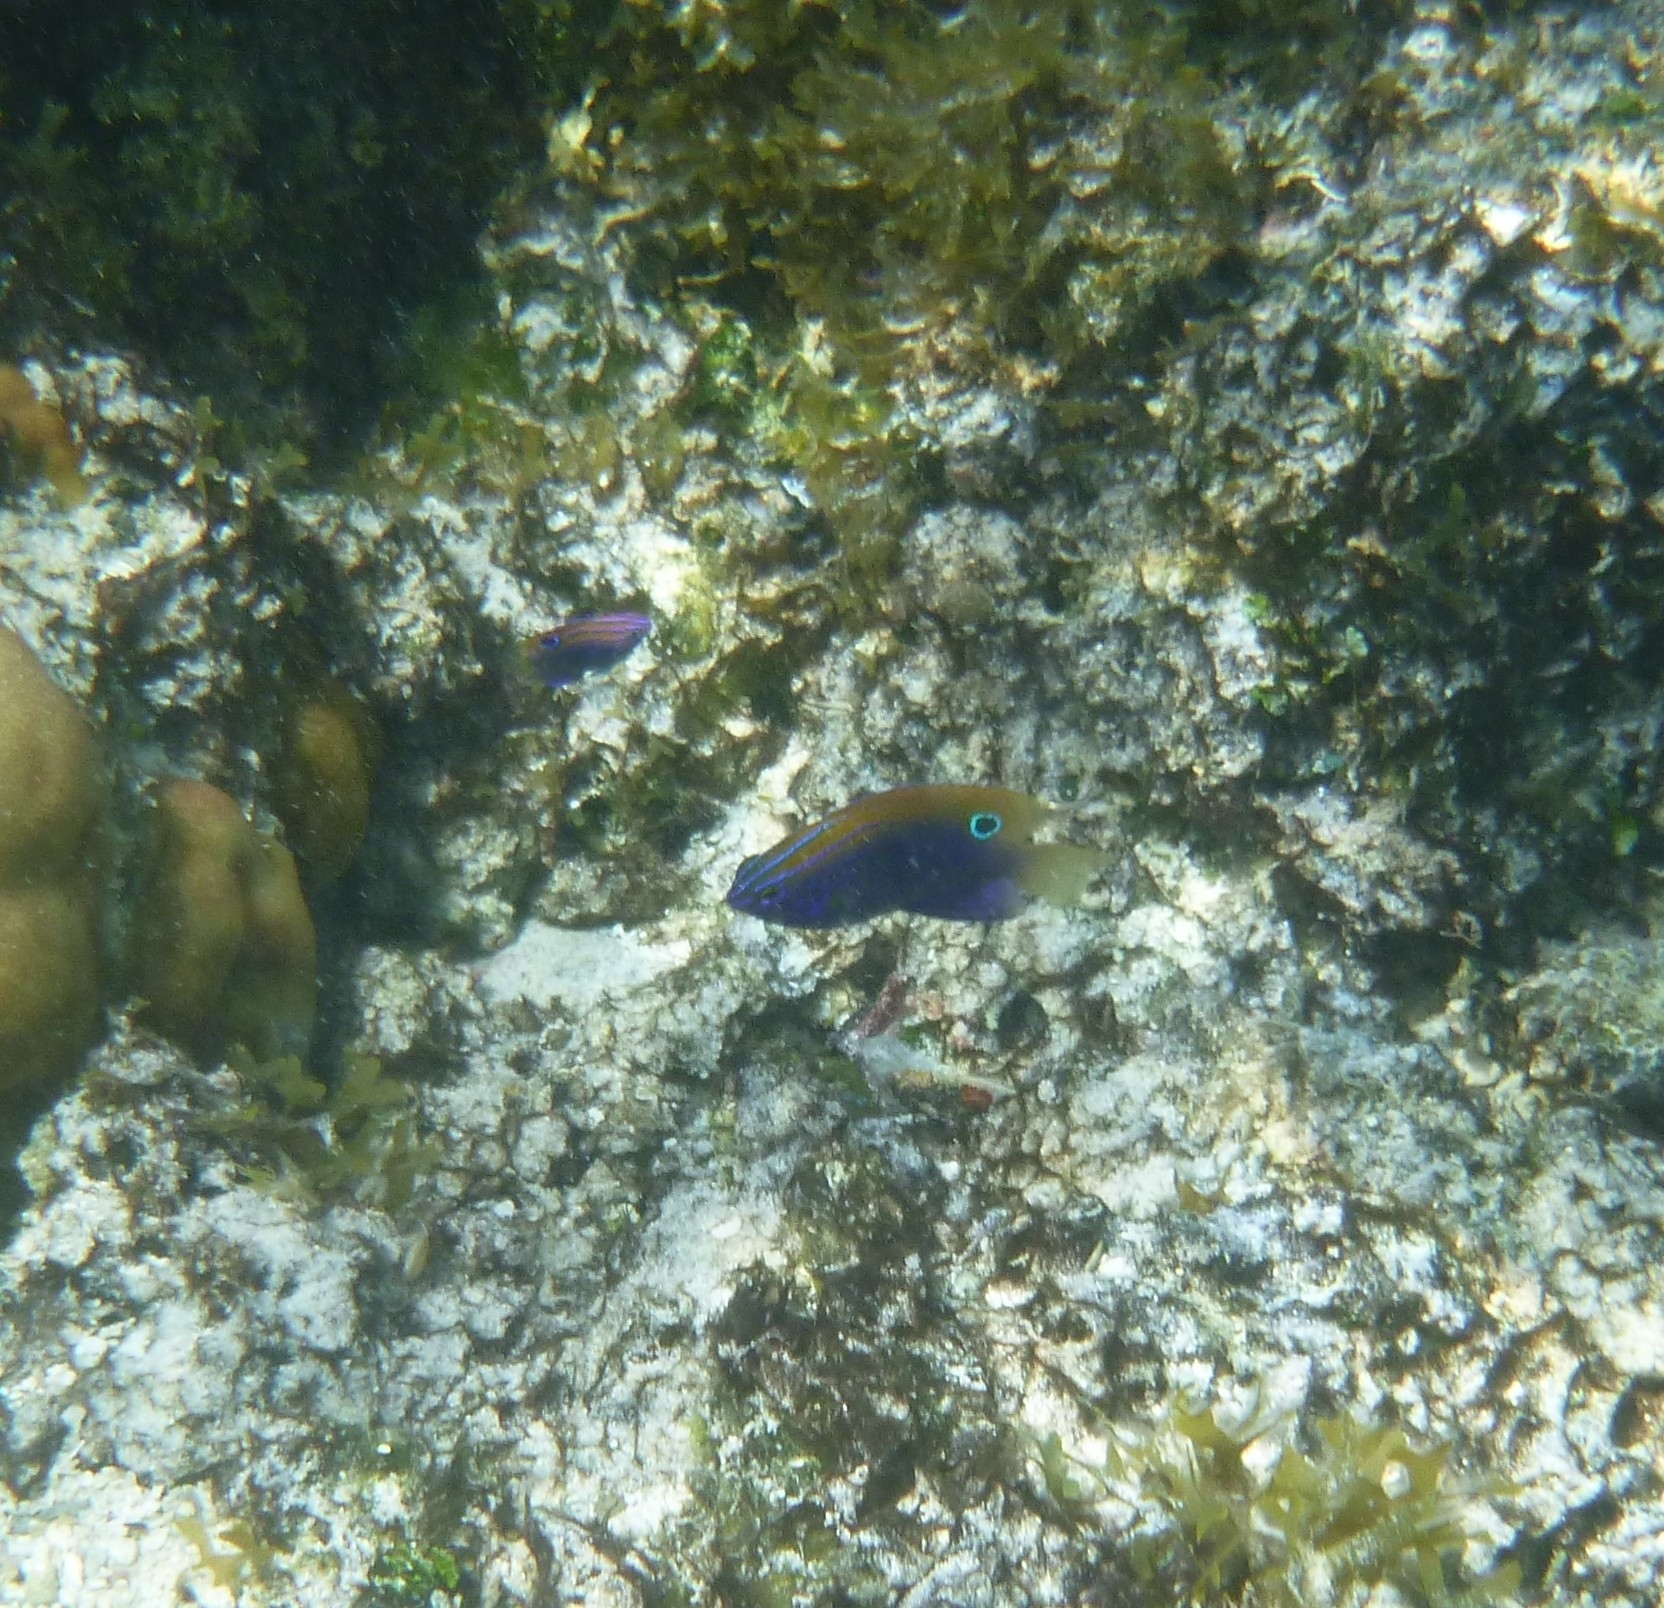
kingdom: Animalia
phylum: Chordata
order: Perciformes
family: Pomacentridae
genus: Pomacentrus
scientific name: Pomacentrus vaiuli
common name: Princess damsel
